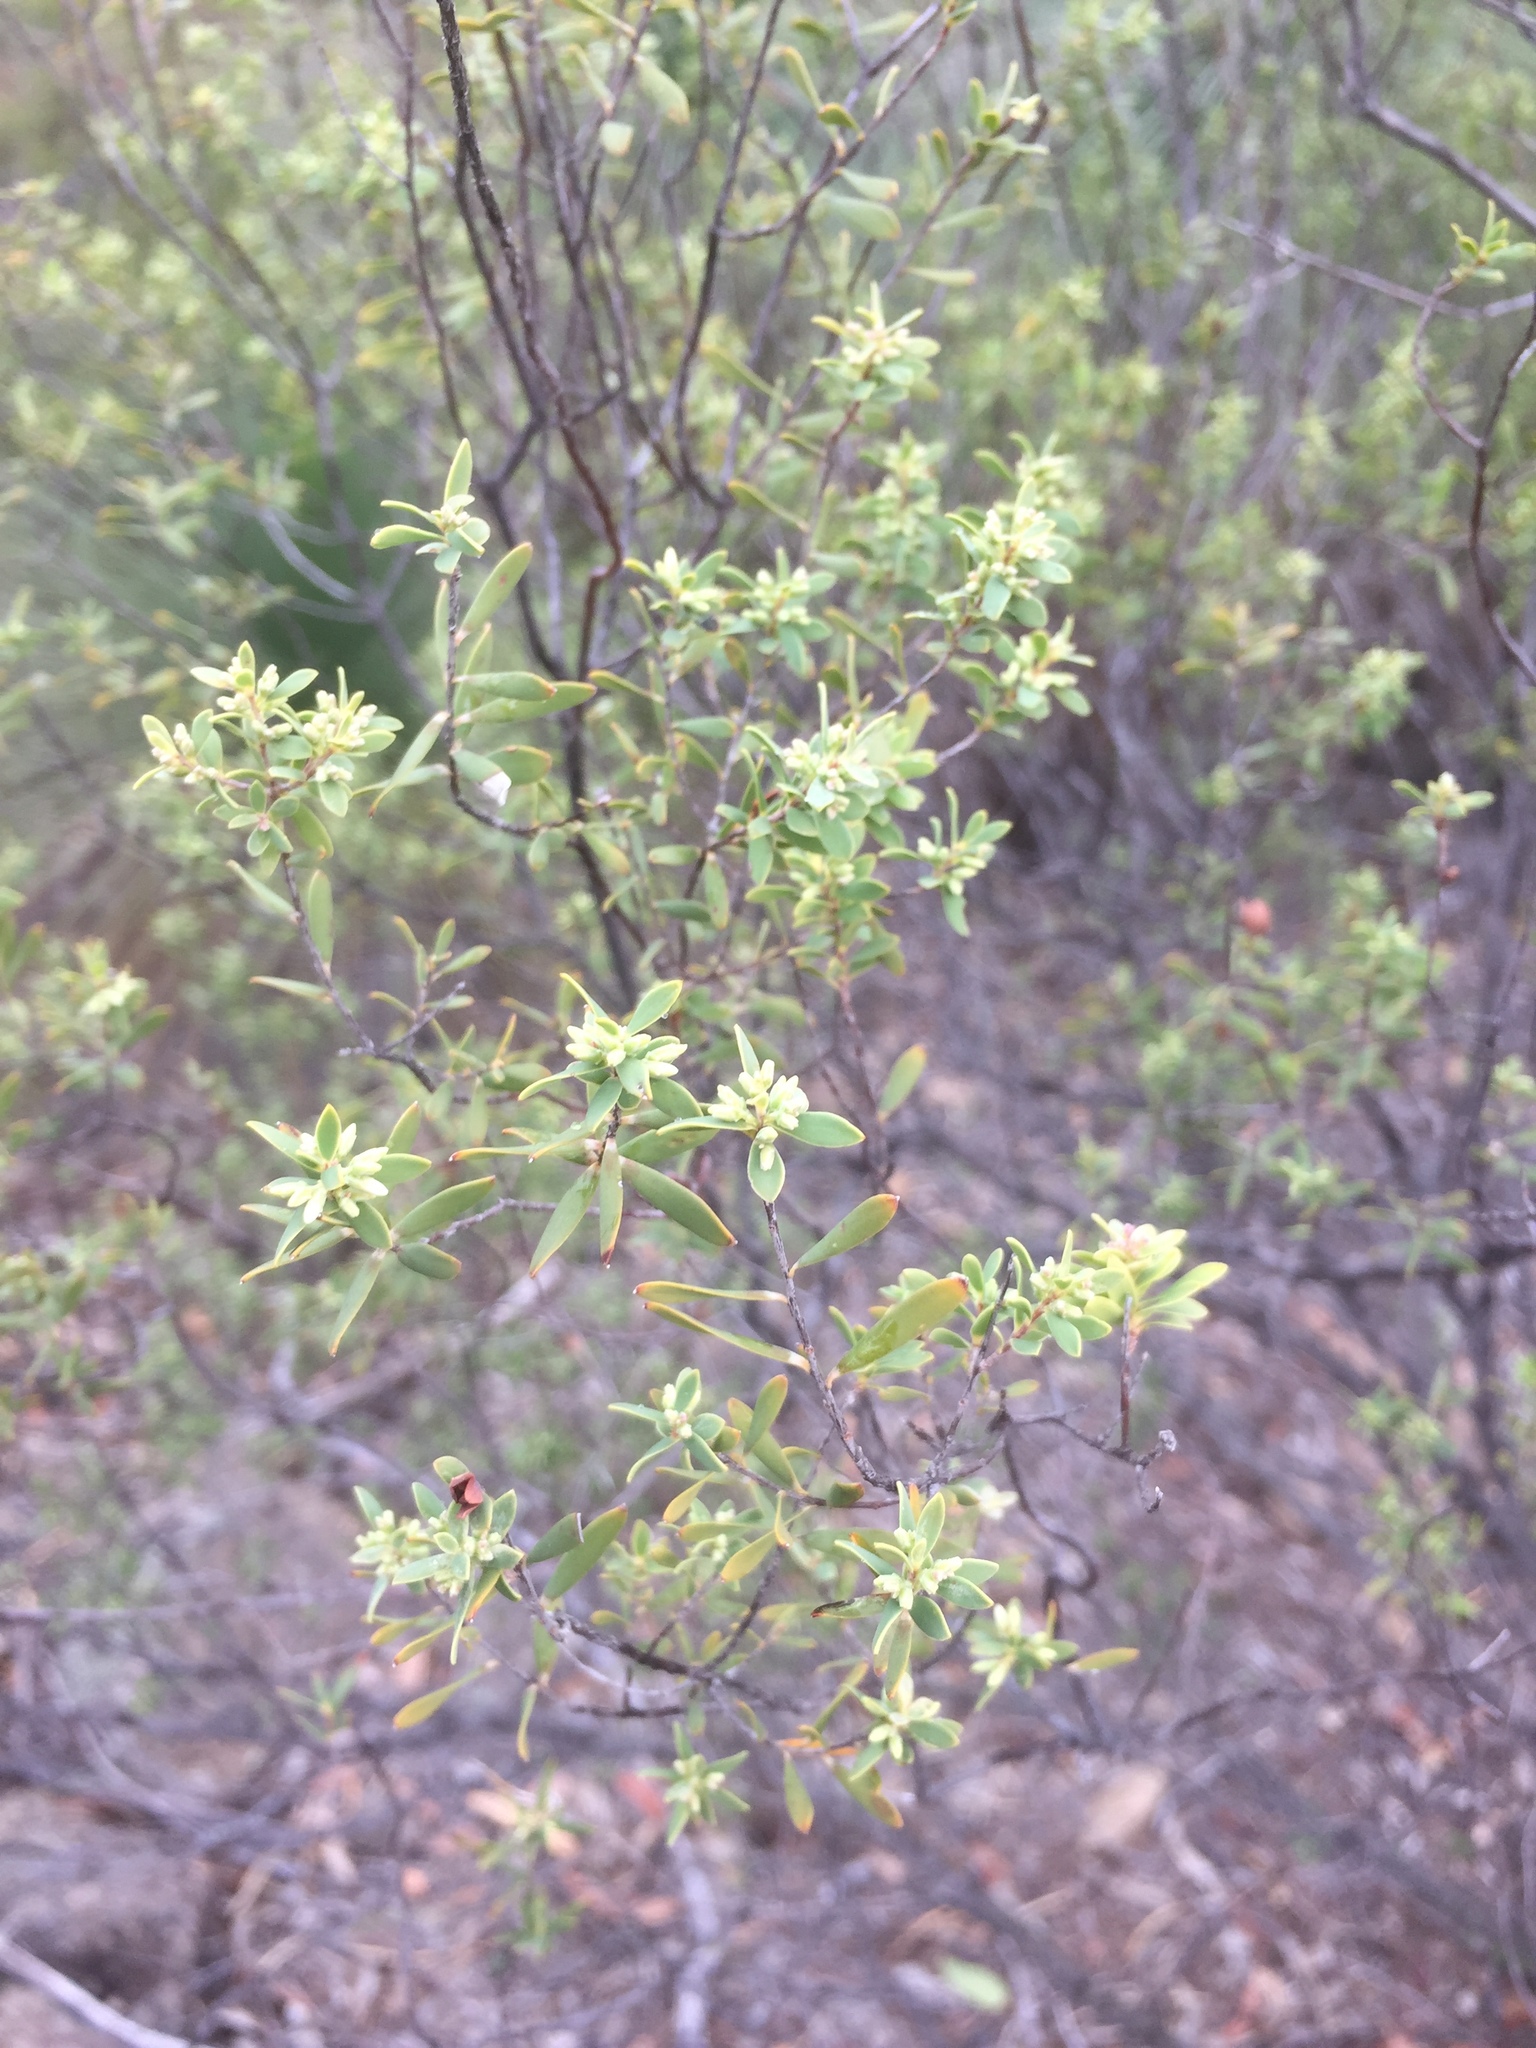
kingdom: Plantae
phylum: Tracheophyta
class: Magnoliopsida
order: Ericales
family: Ericaceae
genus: Monotoca
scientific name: Monotoca scoparia
